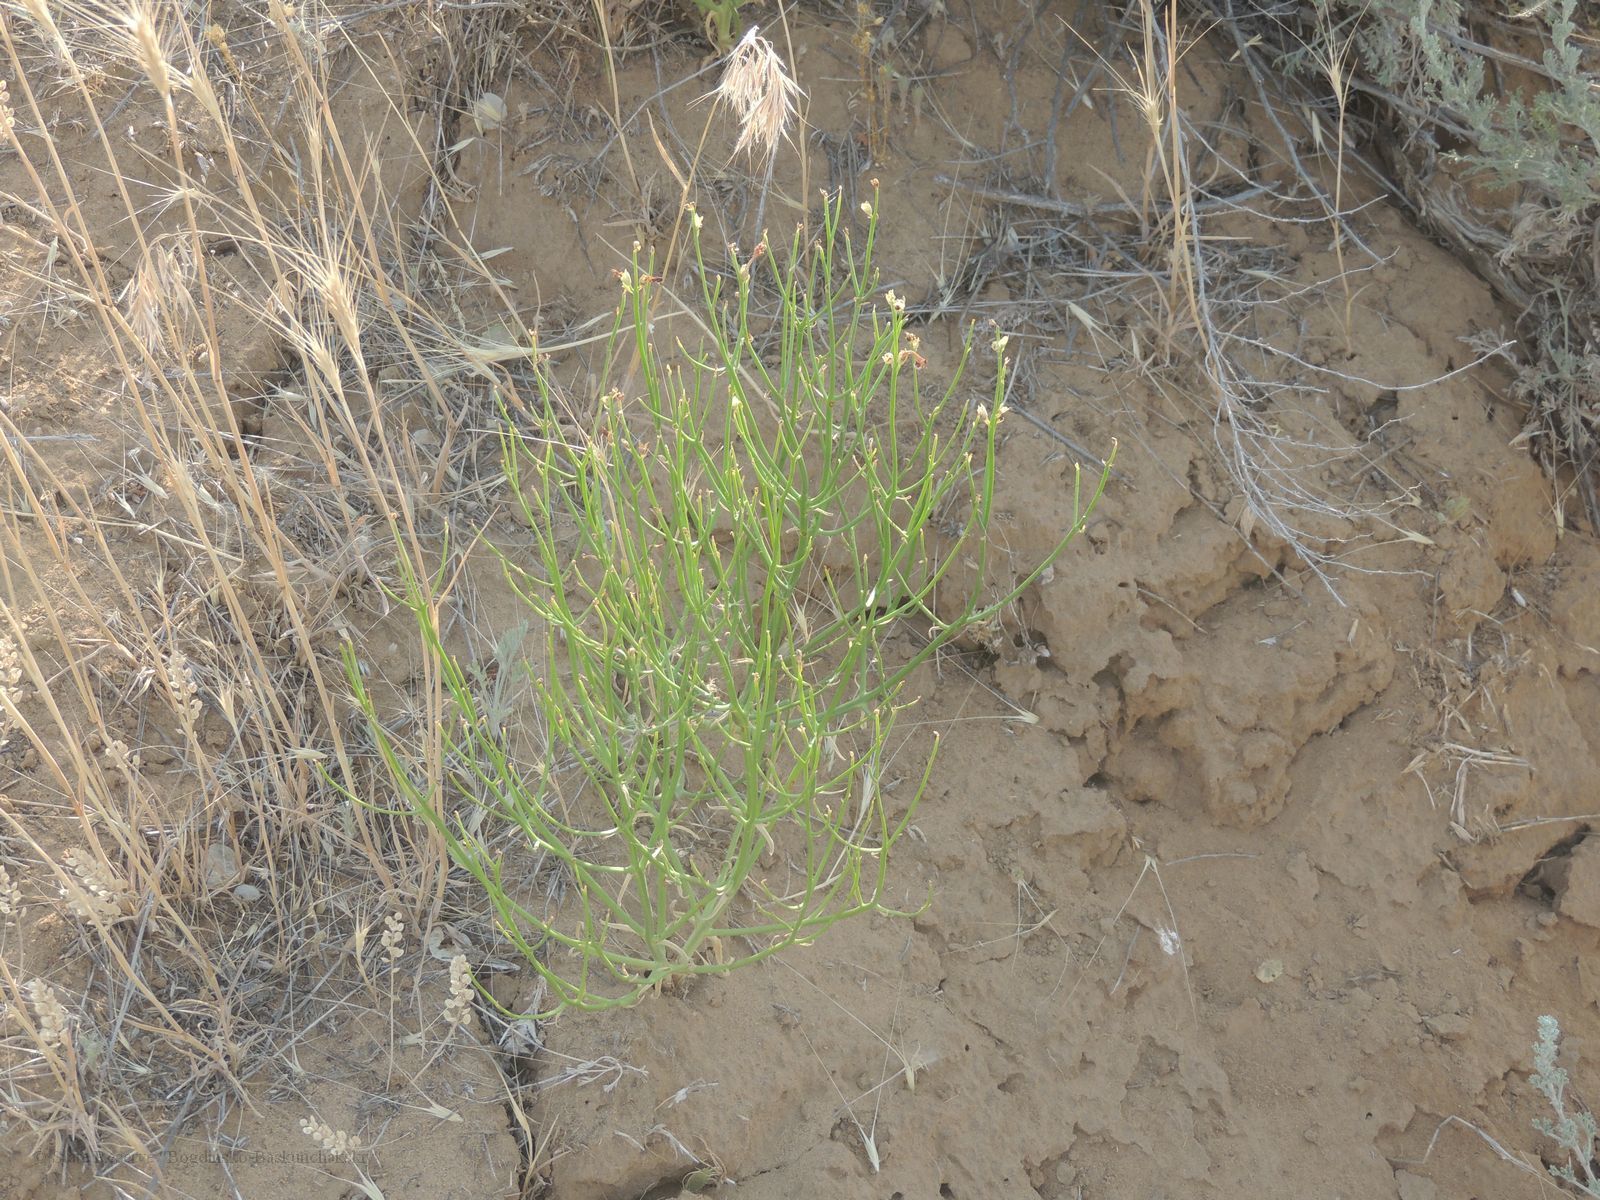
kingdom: Plantae
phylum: Tracheophyta
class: Magnoliopsida
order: Lamiales
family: Mazaceae
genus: Dodartia
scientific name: Dodartia orientalis
